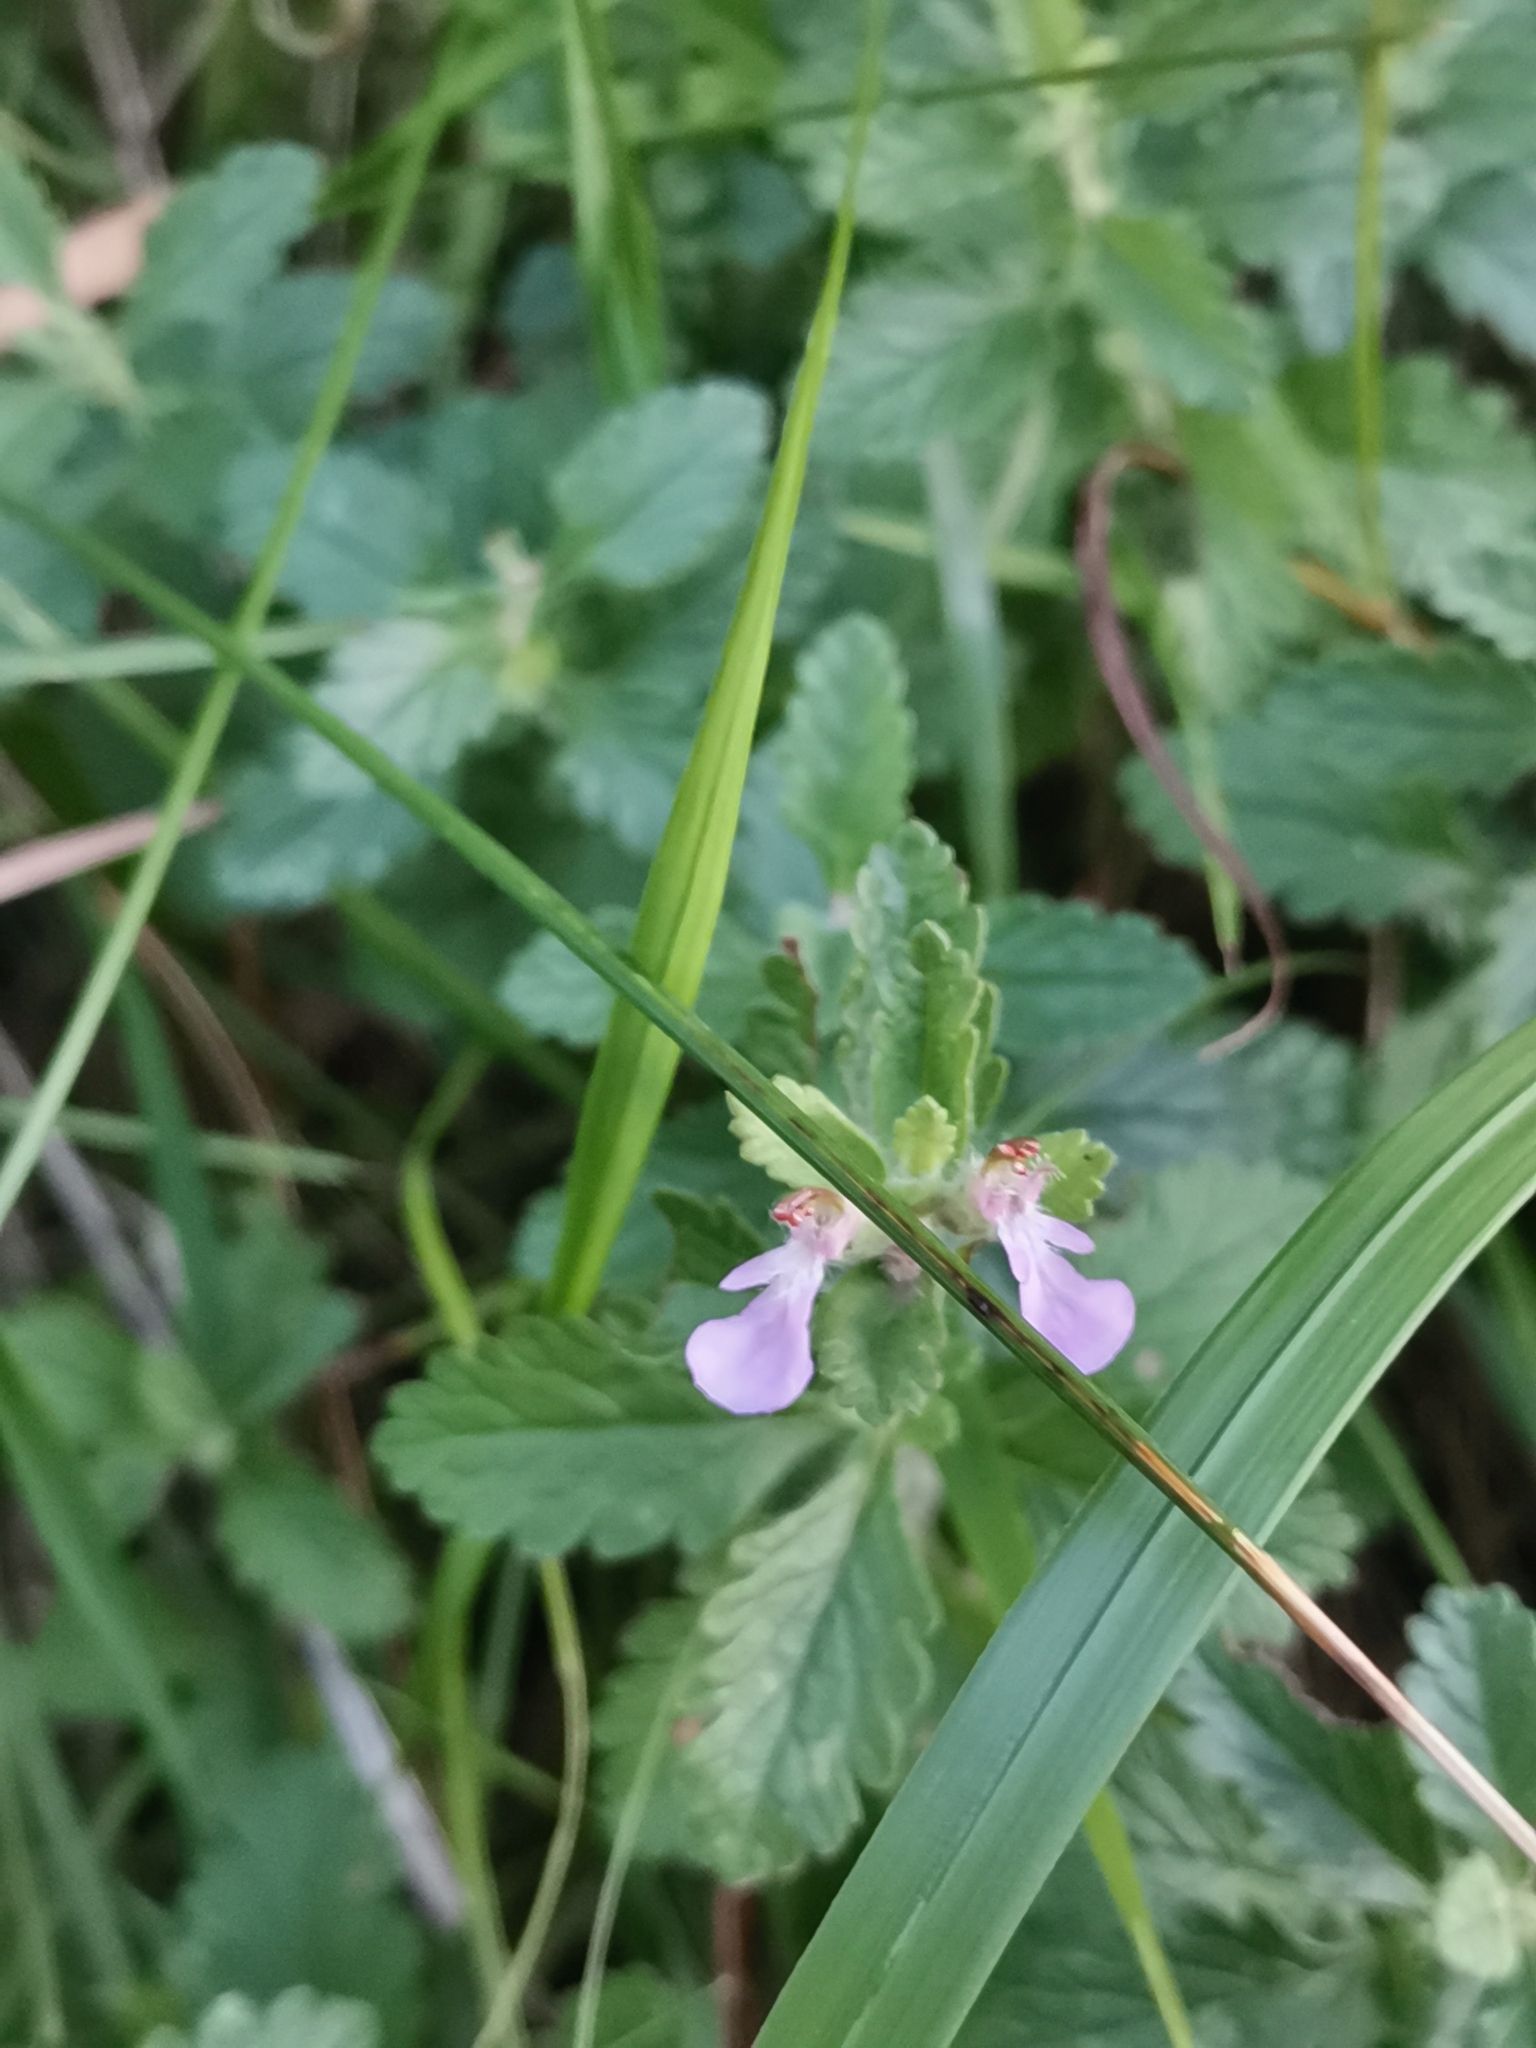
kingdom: Plantae
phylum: Tracheophyta
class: Magnoliopsida
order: Lamiales
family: Lamiaceae
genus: Teucrium
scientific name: Teucrium chamaedrys
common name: Wall germander
